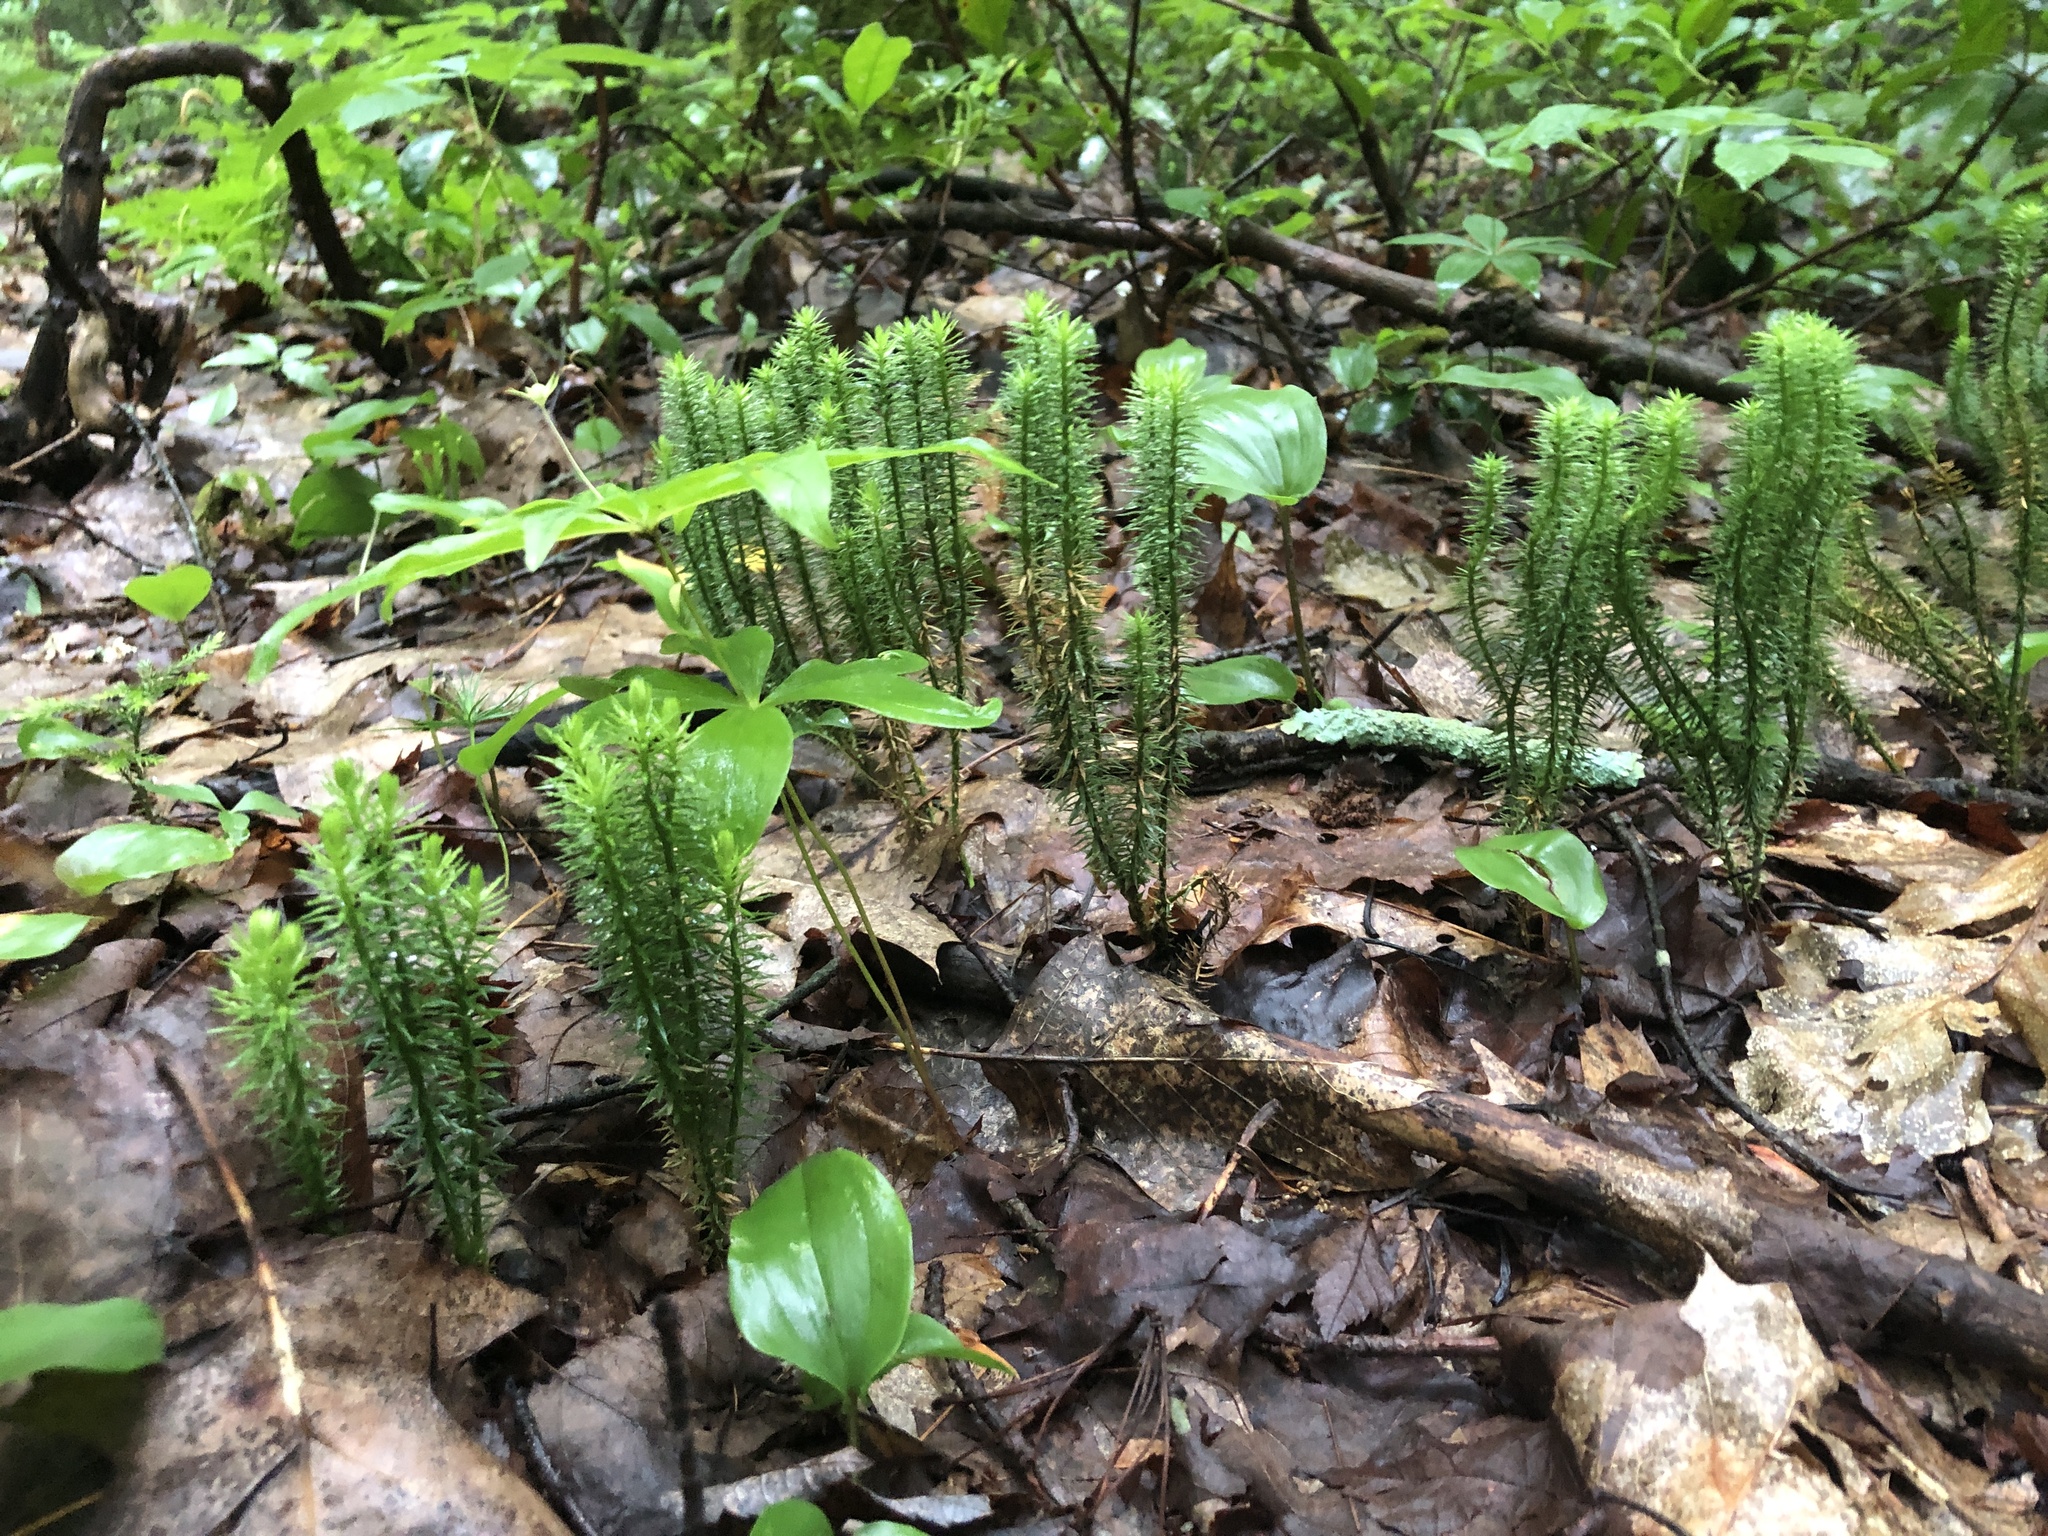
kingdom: Plantae
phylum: Tracheophyta
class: Lycopodiopsida
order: Lycopodiales
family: Lycopodiaceae
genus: Spinulum
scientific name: Spinulum annotinum
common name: Interrupted club-moss
